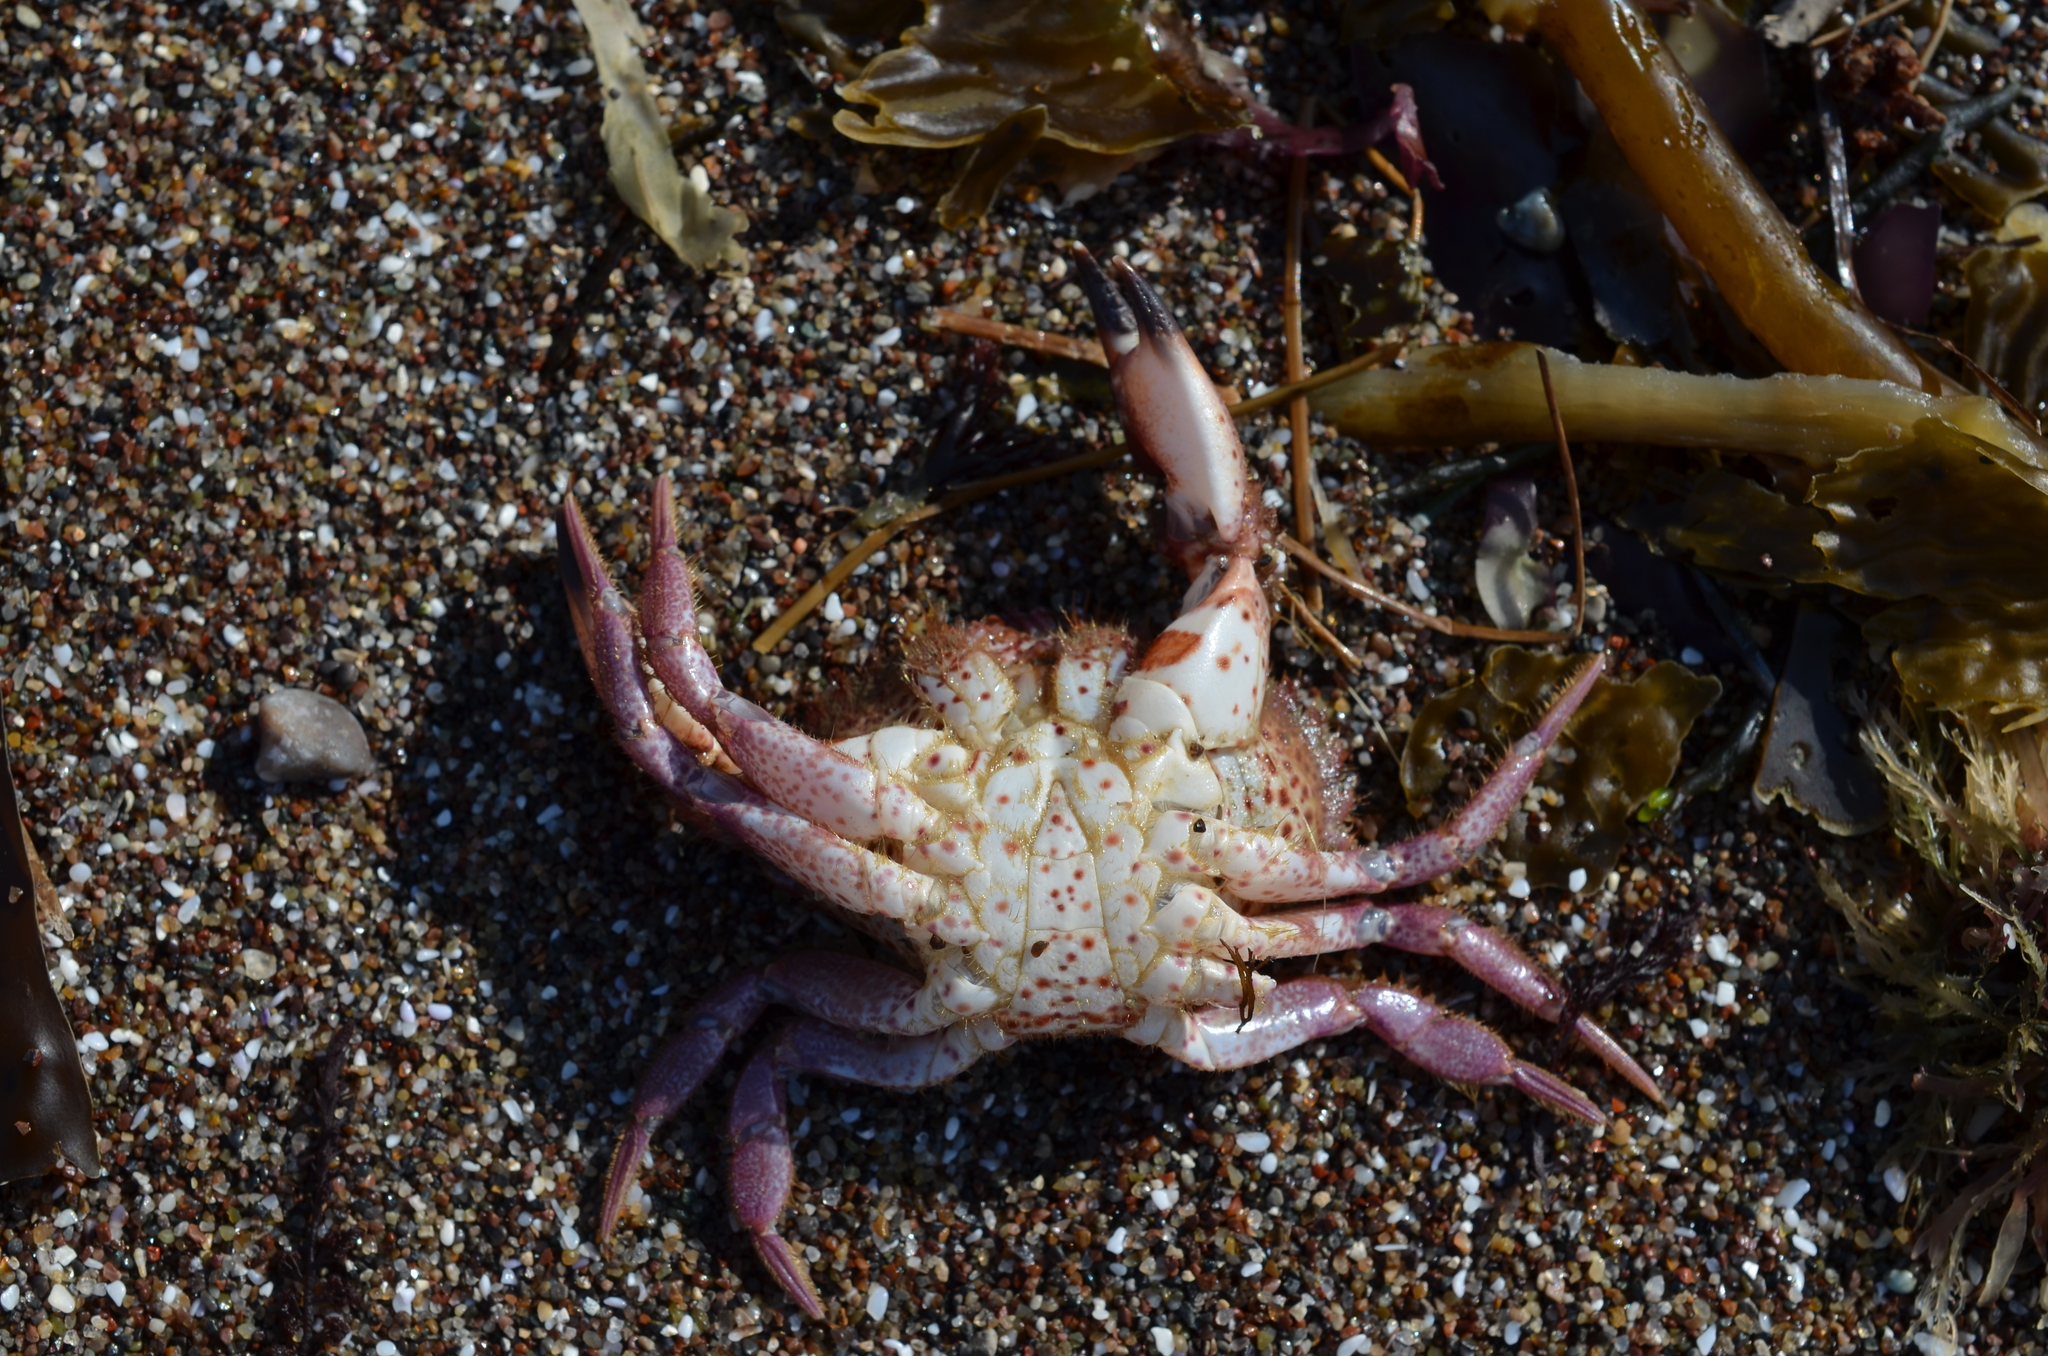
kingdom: Animalia
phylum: Arthropoda
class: Malacostraca
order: Decapoda
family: Cancridae
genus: Romaleon
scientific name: Romaleon antennarium
